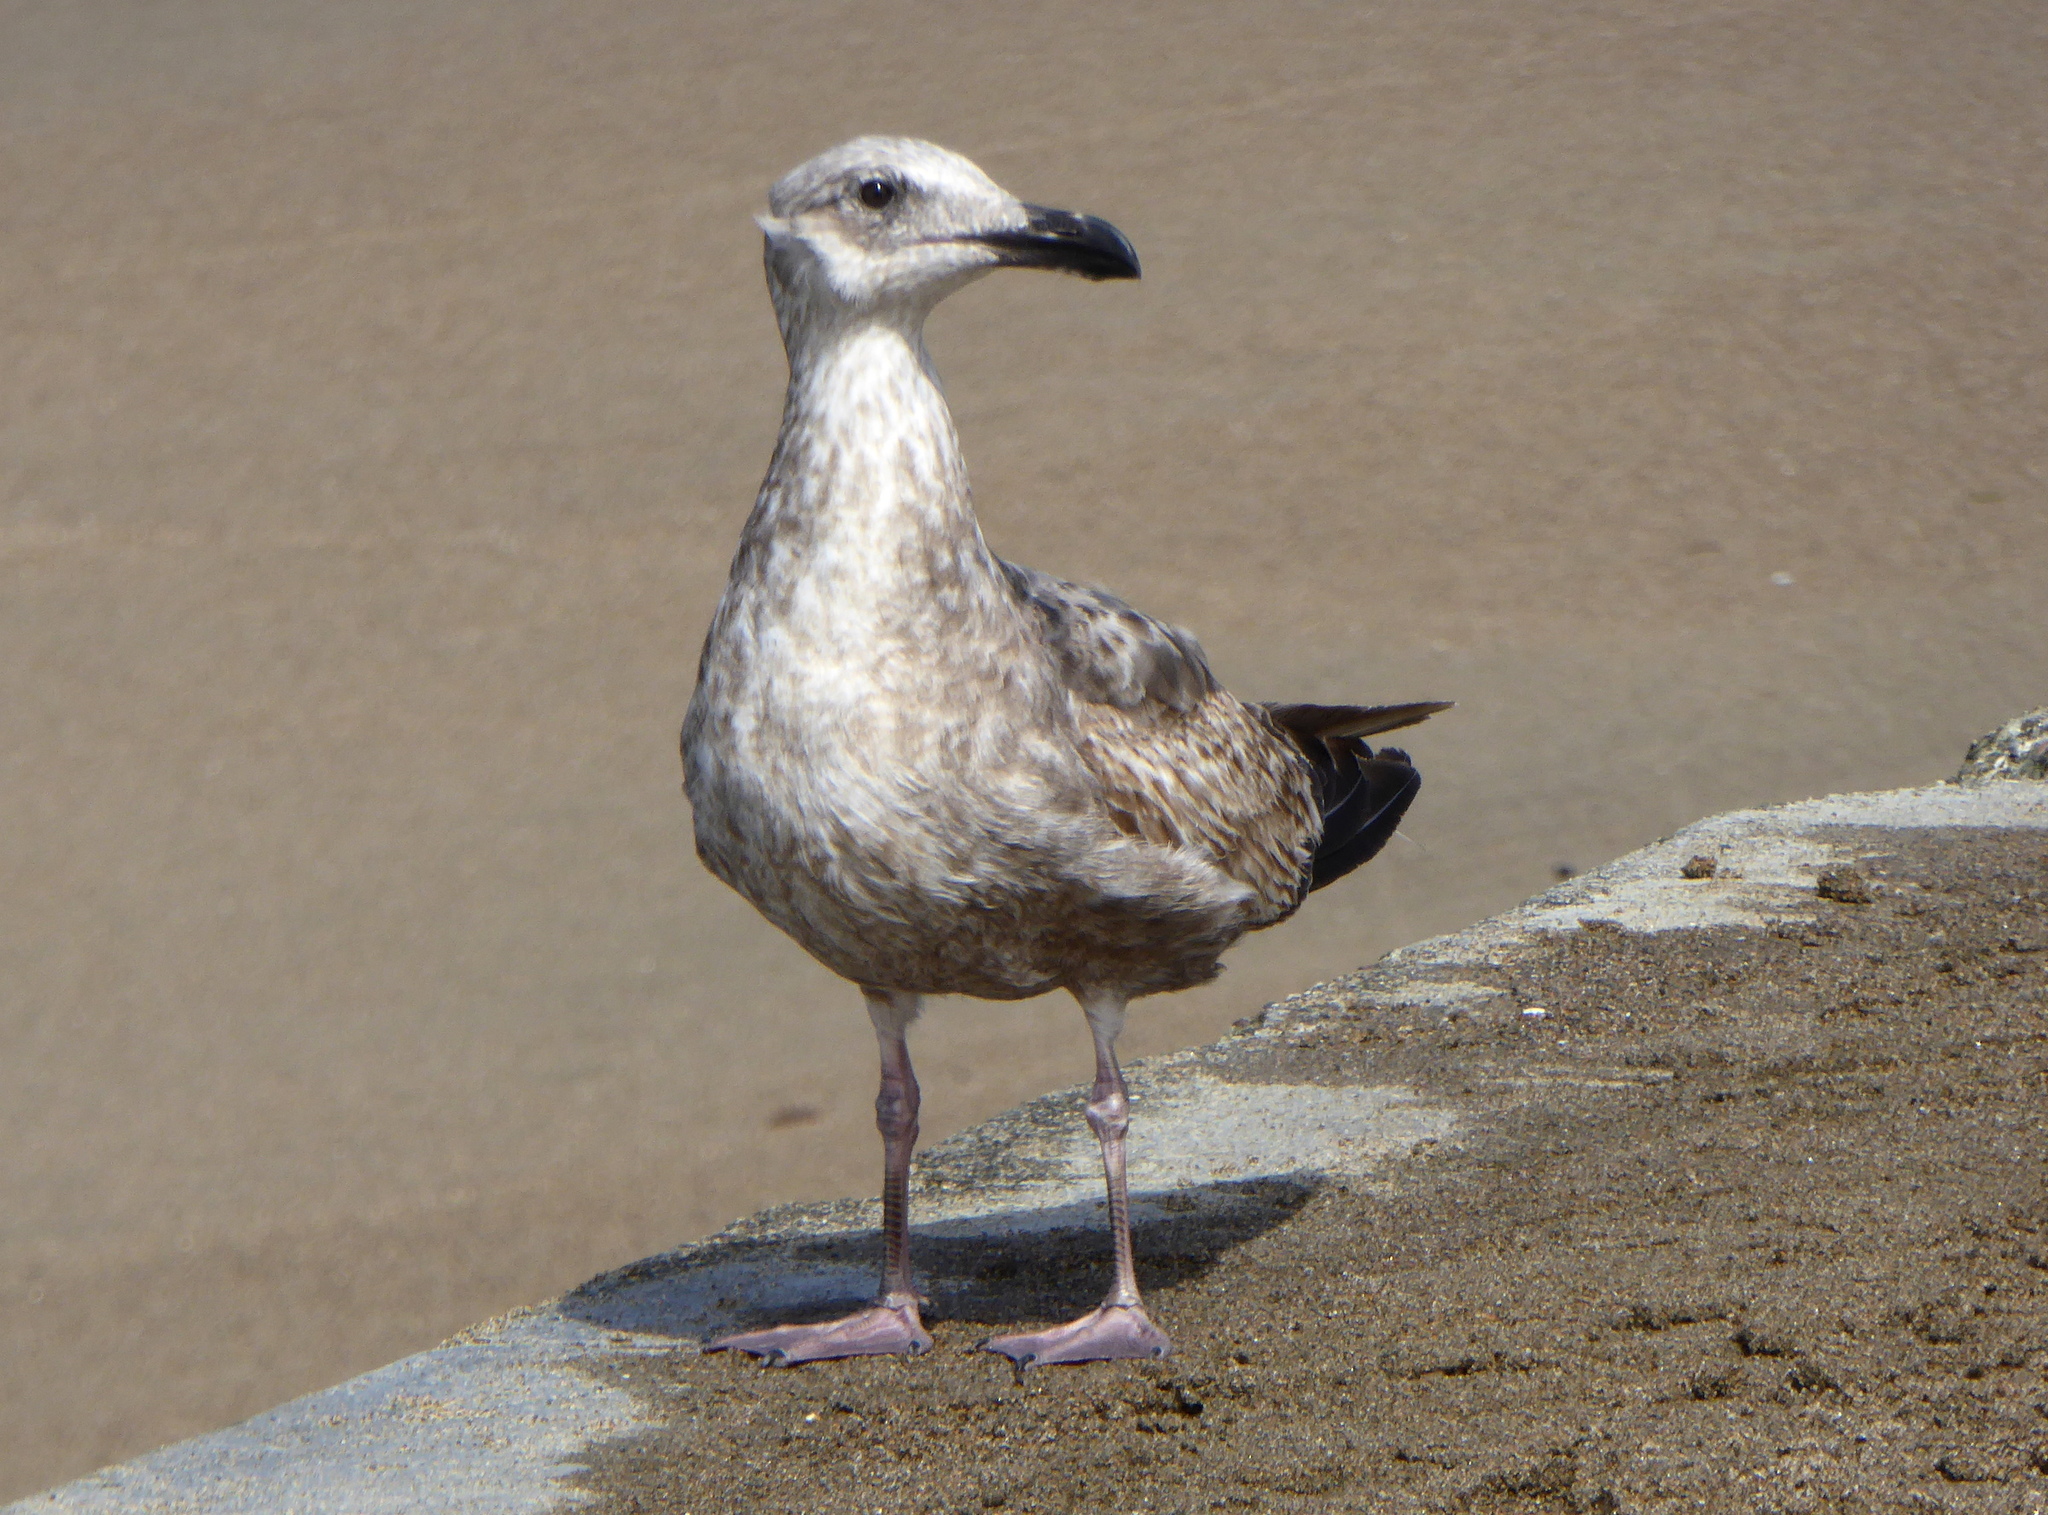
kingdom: Animalia
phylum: Chordata
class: Aves
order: Charadriiformes
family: Laridae
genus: Larus
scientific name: Larus occidentalis
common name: Western gull
